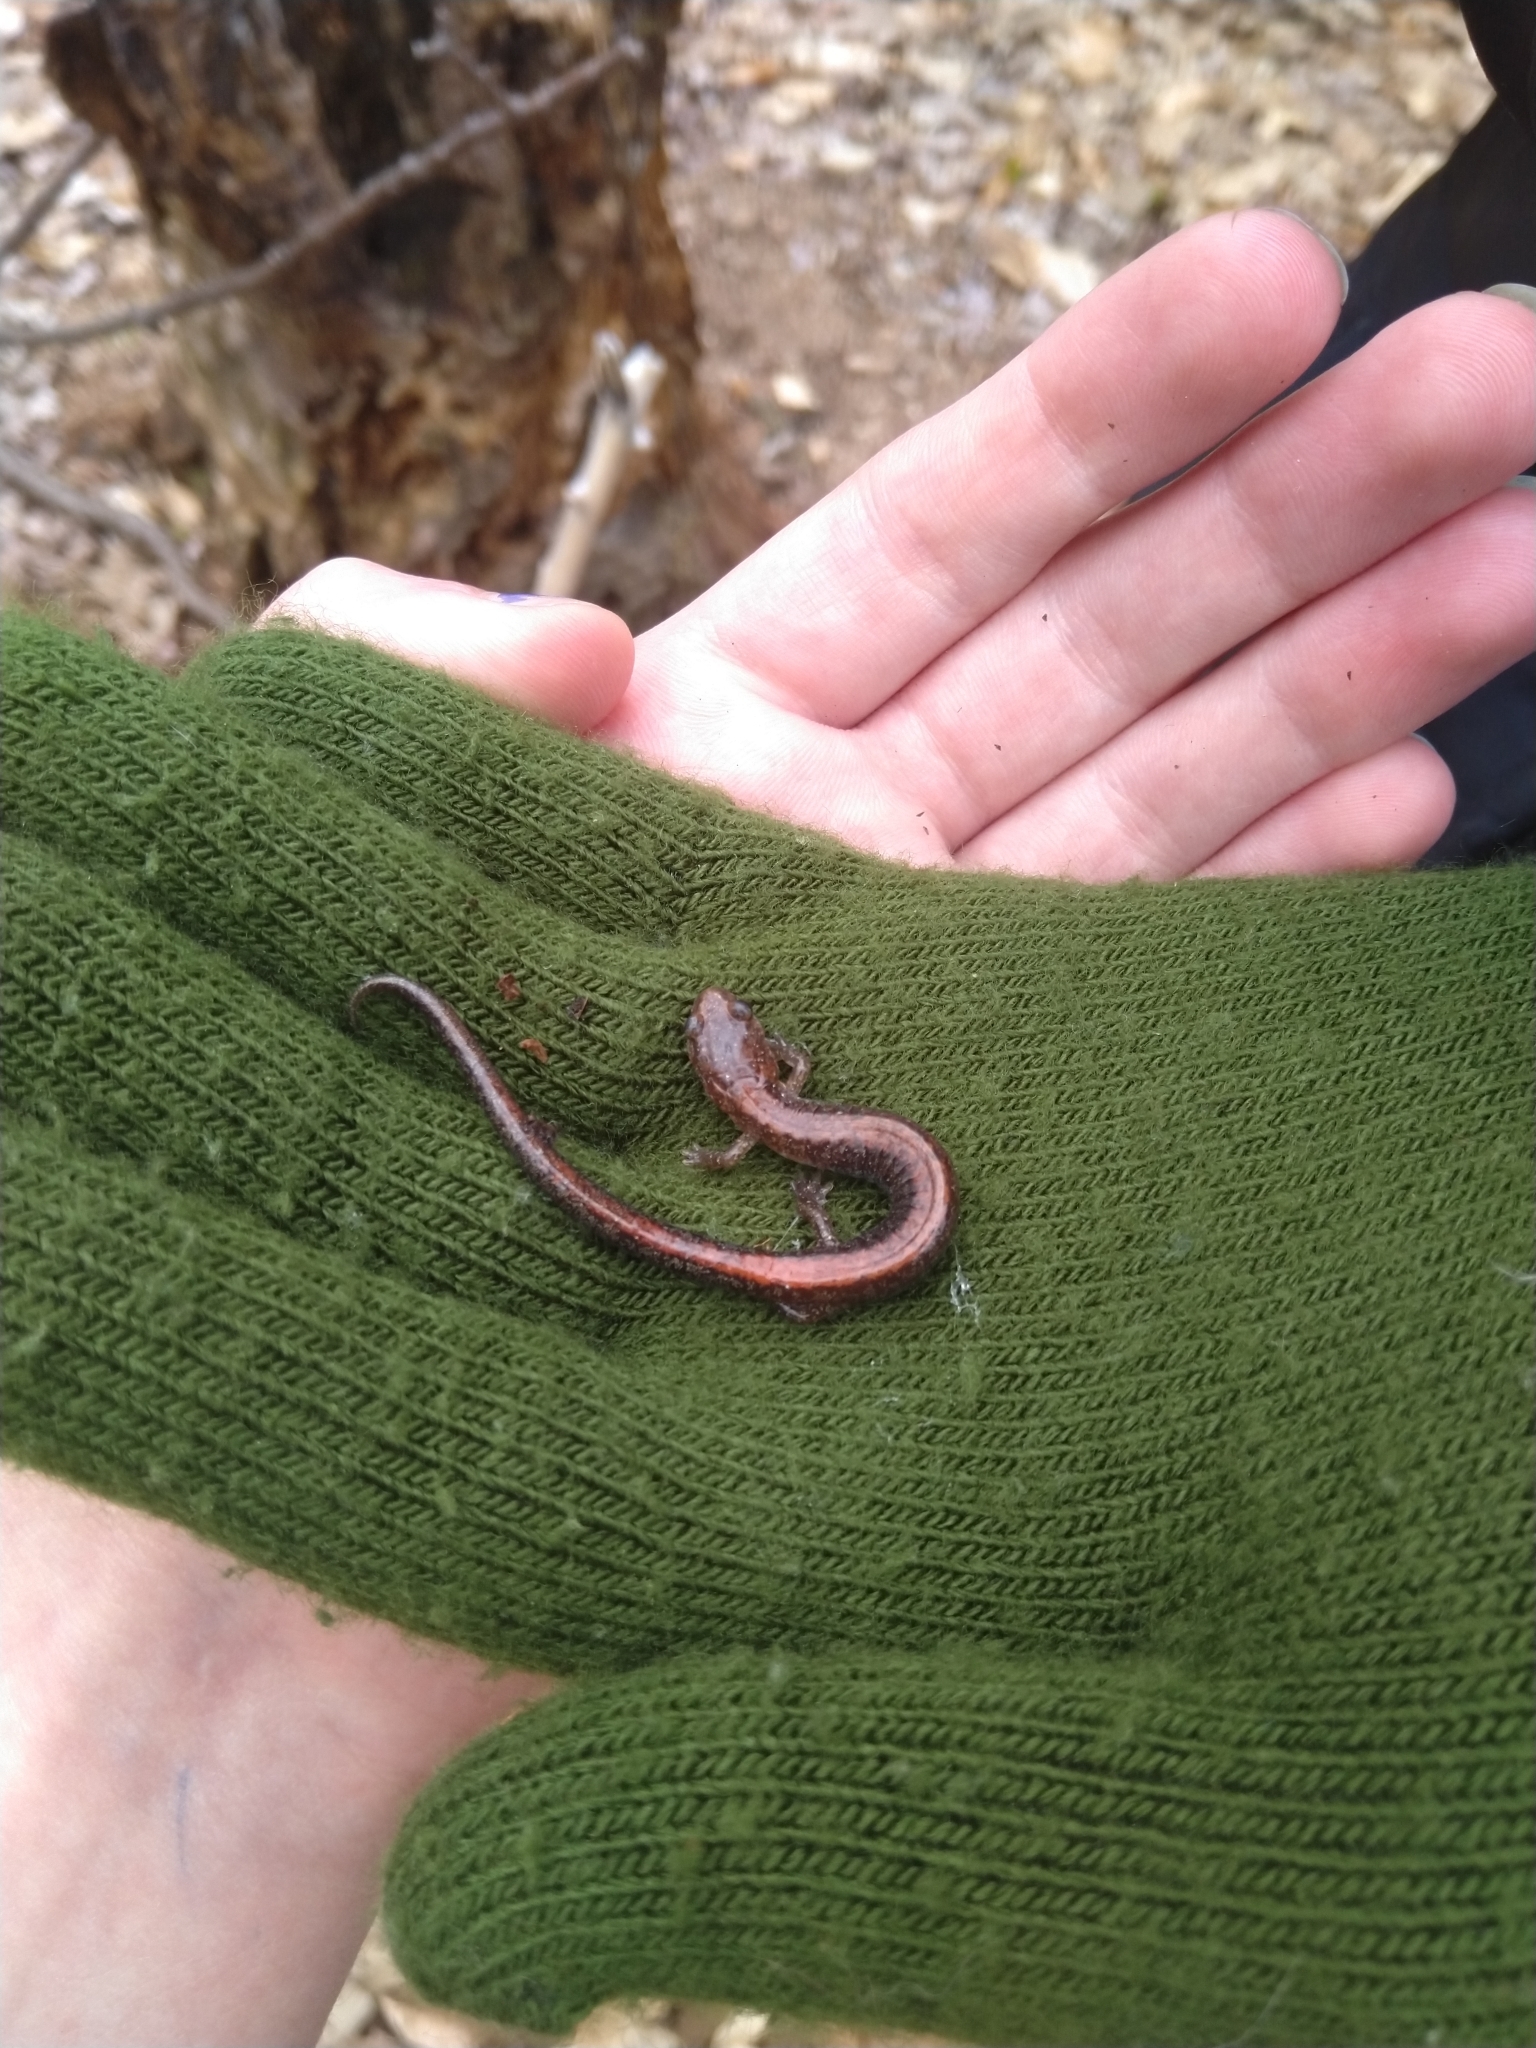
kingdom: Animalia
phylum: Chordata
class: Amphibia
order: Caudata
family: Plethodontidae
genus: Plethodon
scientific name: Plethodon cinereus
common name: Redback salamander
